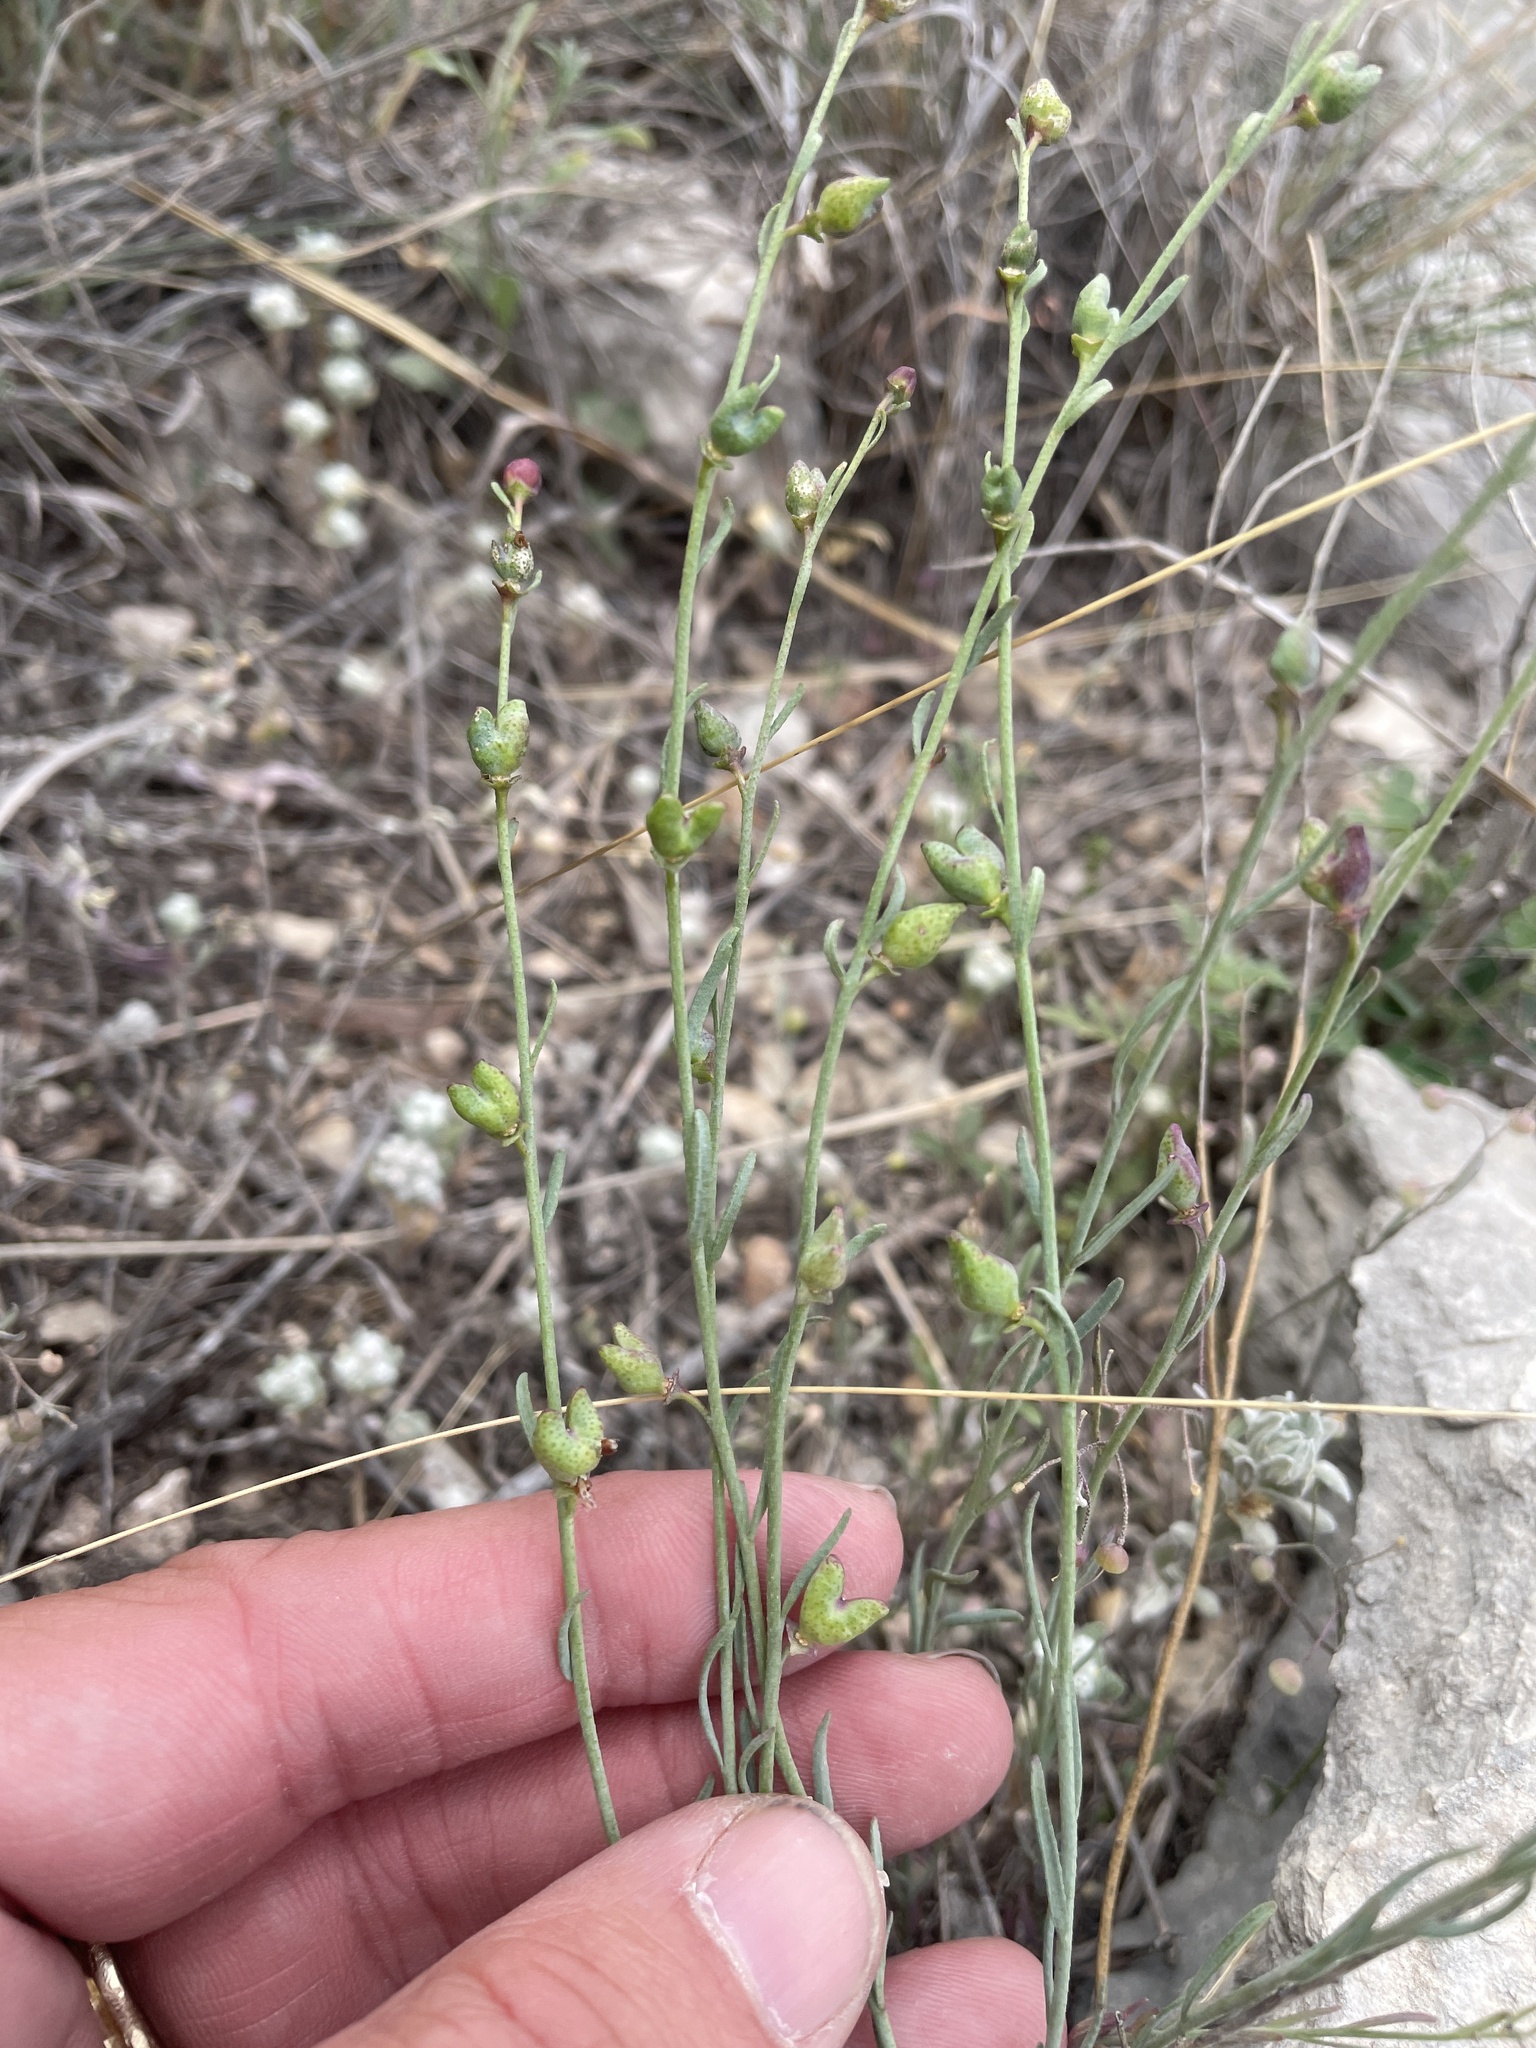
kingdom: Plantae
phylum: Tracheophyta
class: Magnoliopsida
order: Sapindales
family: Rutaceae
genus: Thamnosma
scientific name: Thamnosma texana
